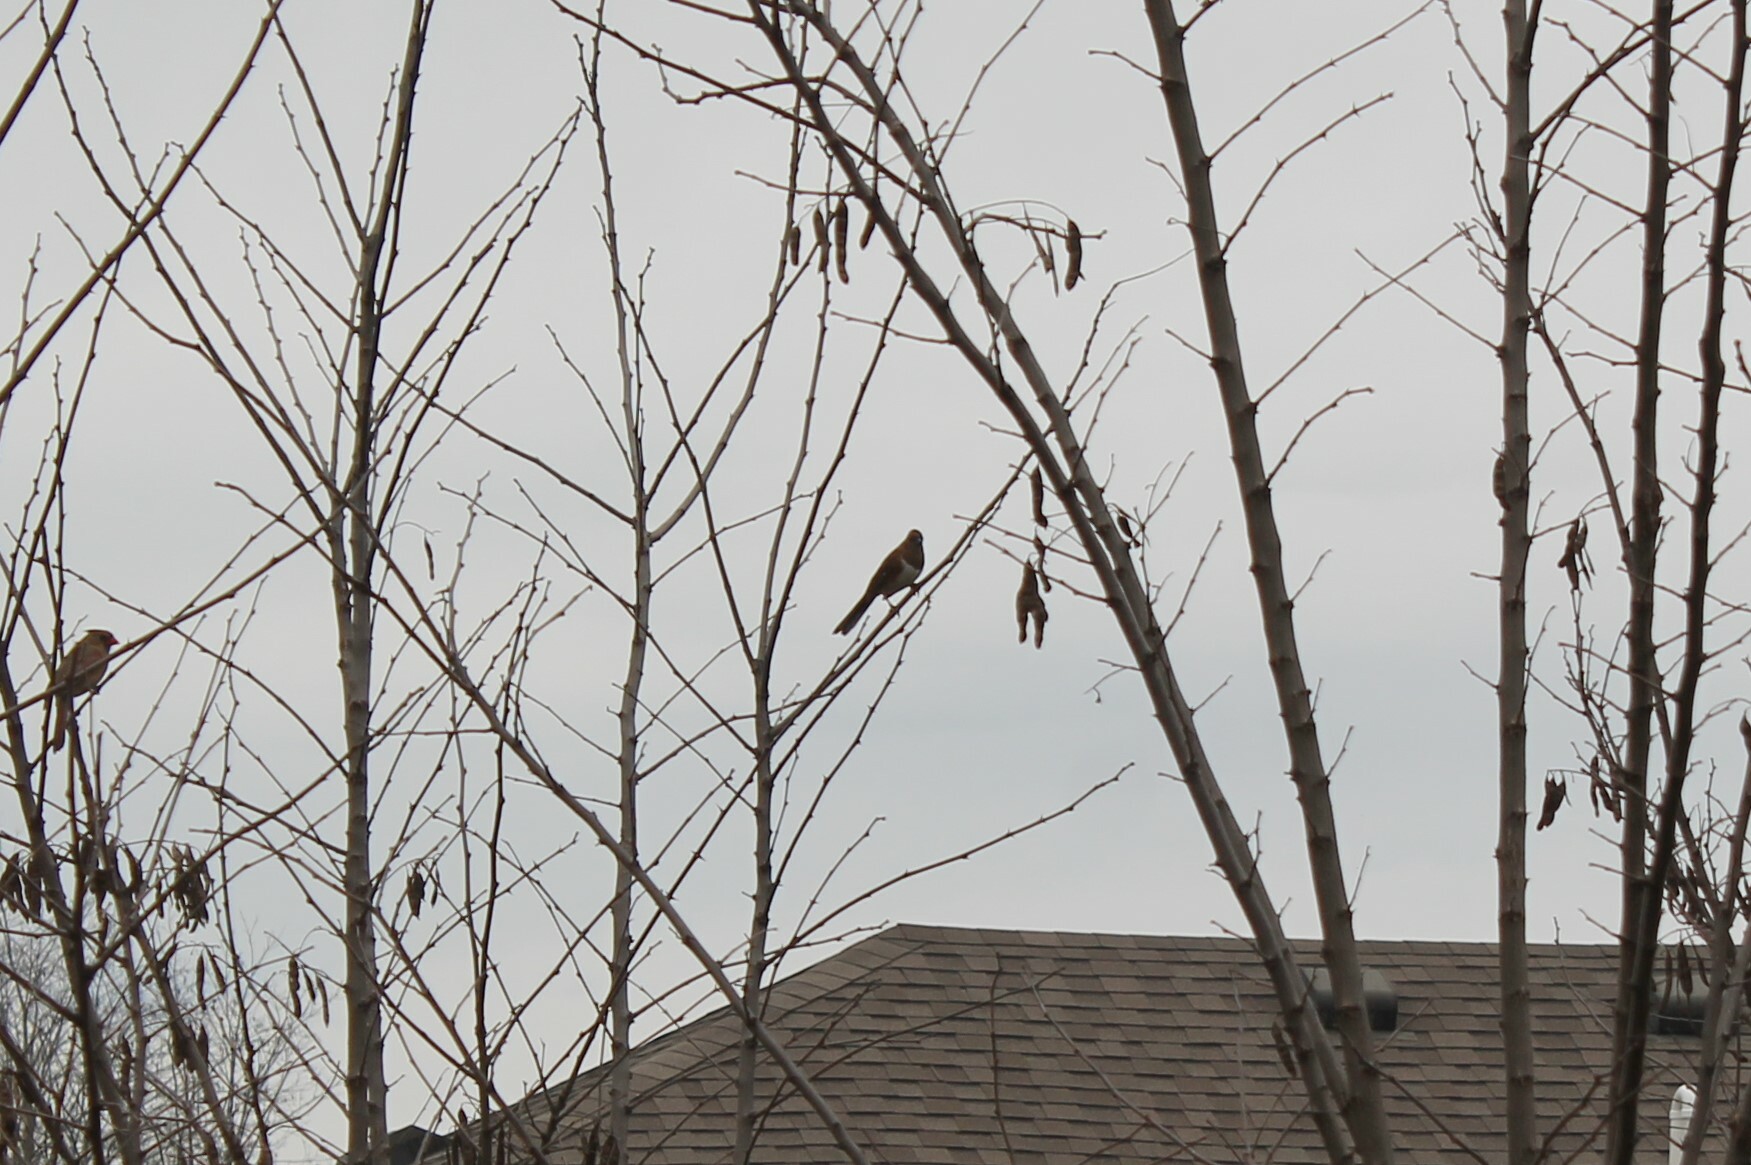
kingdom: Animalia
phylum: Chordata
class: Aves
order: Passeriformes
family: Passerellidae
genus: Pipilo
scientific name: Pipilo erythrophthalmus
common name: Eastern towhee
